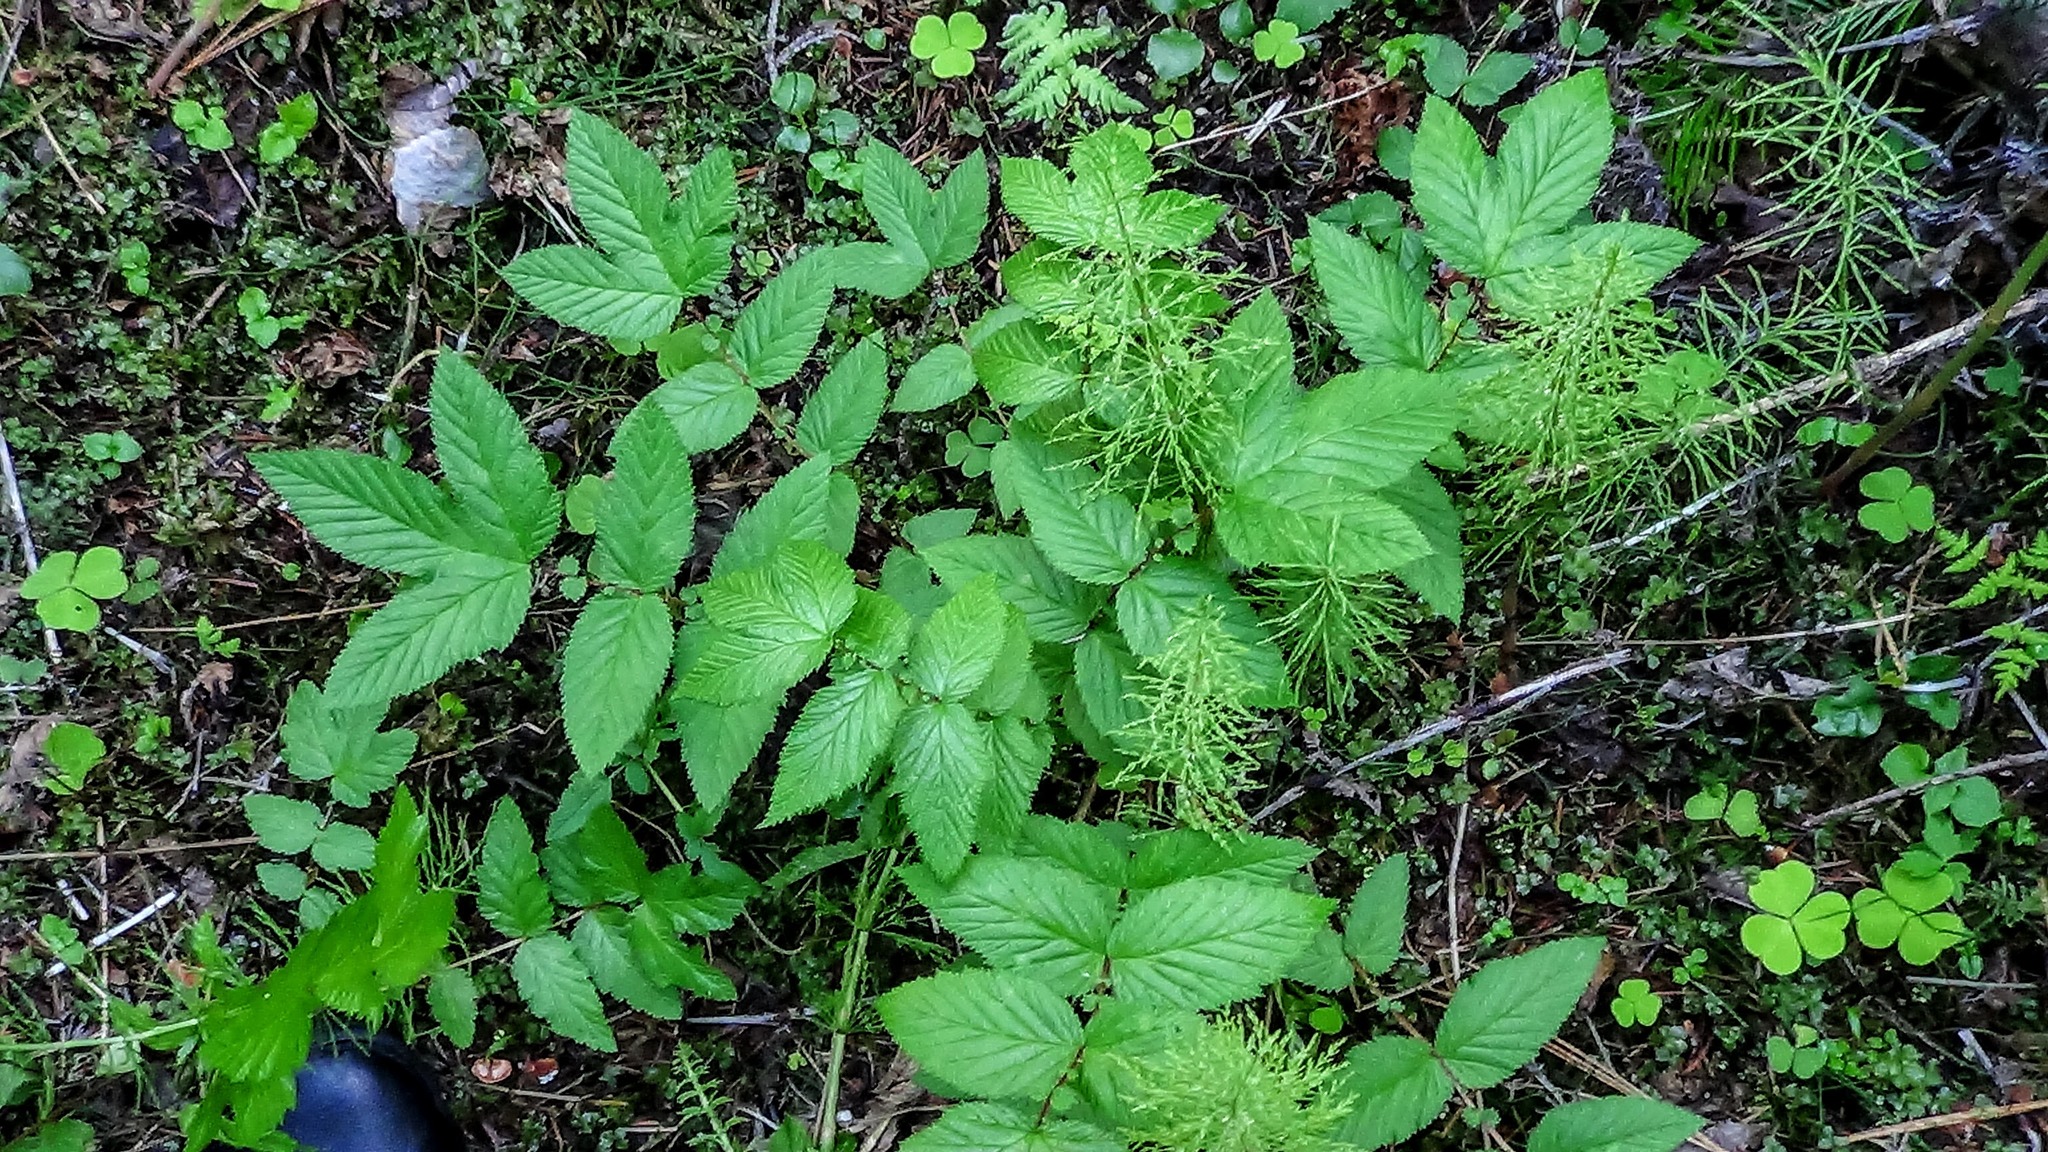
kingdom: Plantae
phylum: Tracheophyta
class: Magnoliopsida
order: Rosales
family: Rosaceae
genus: Filipendula
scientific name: Filipendula ulmaria
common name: Meadowsweet
